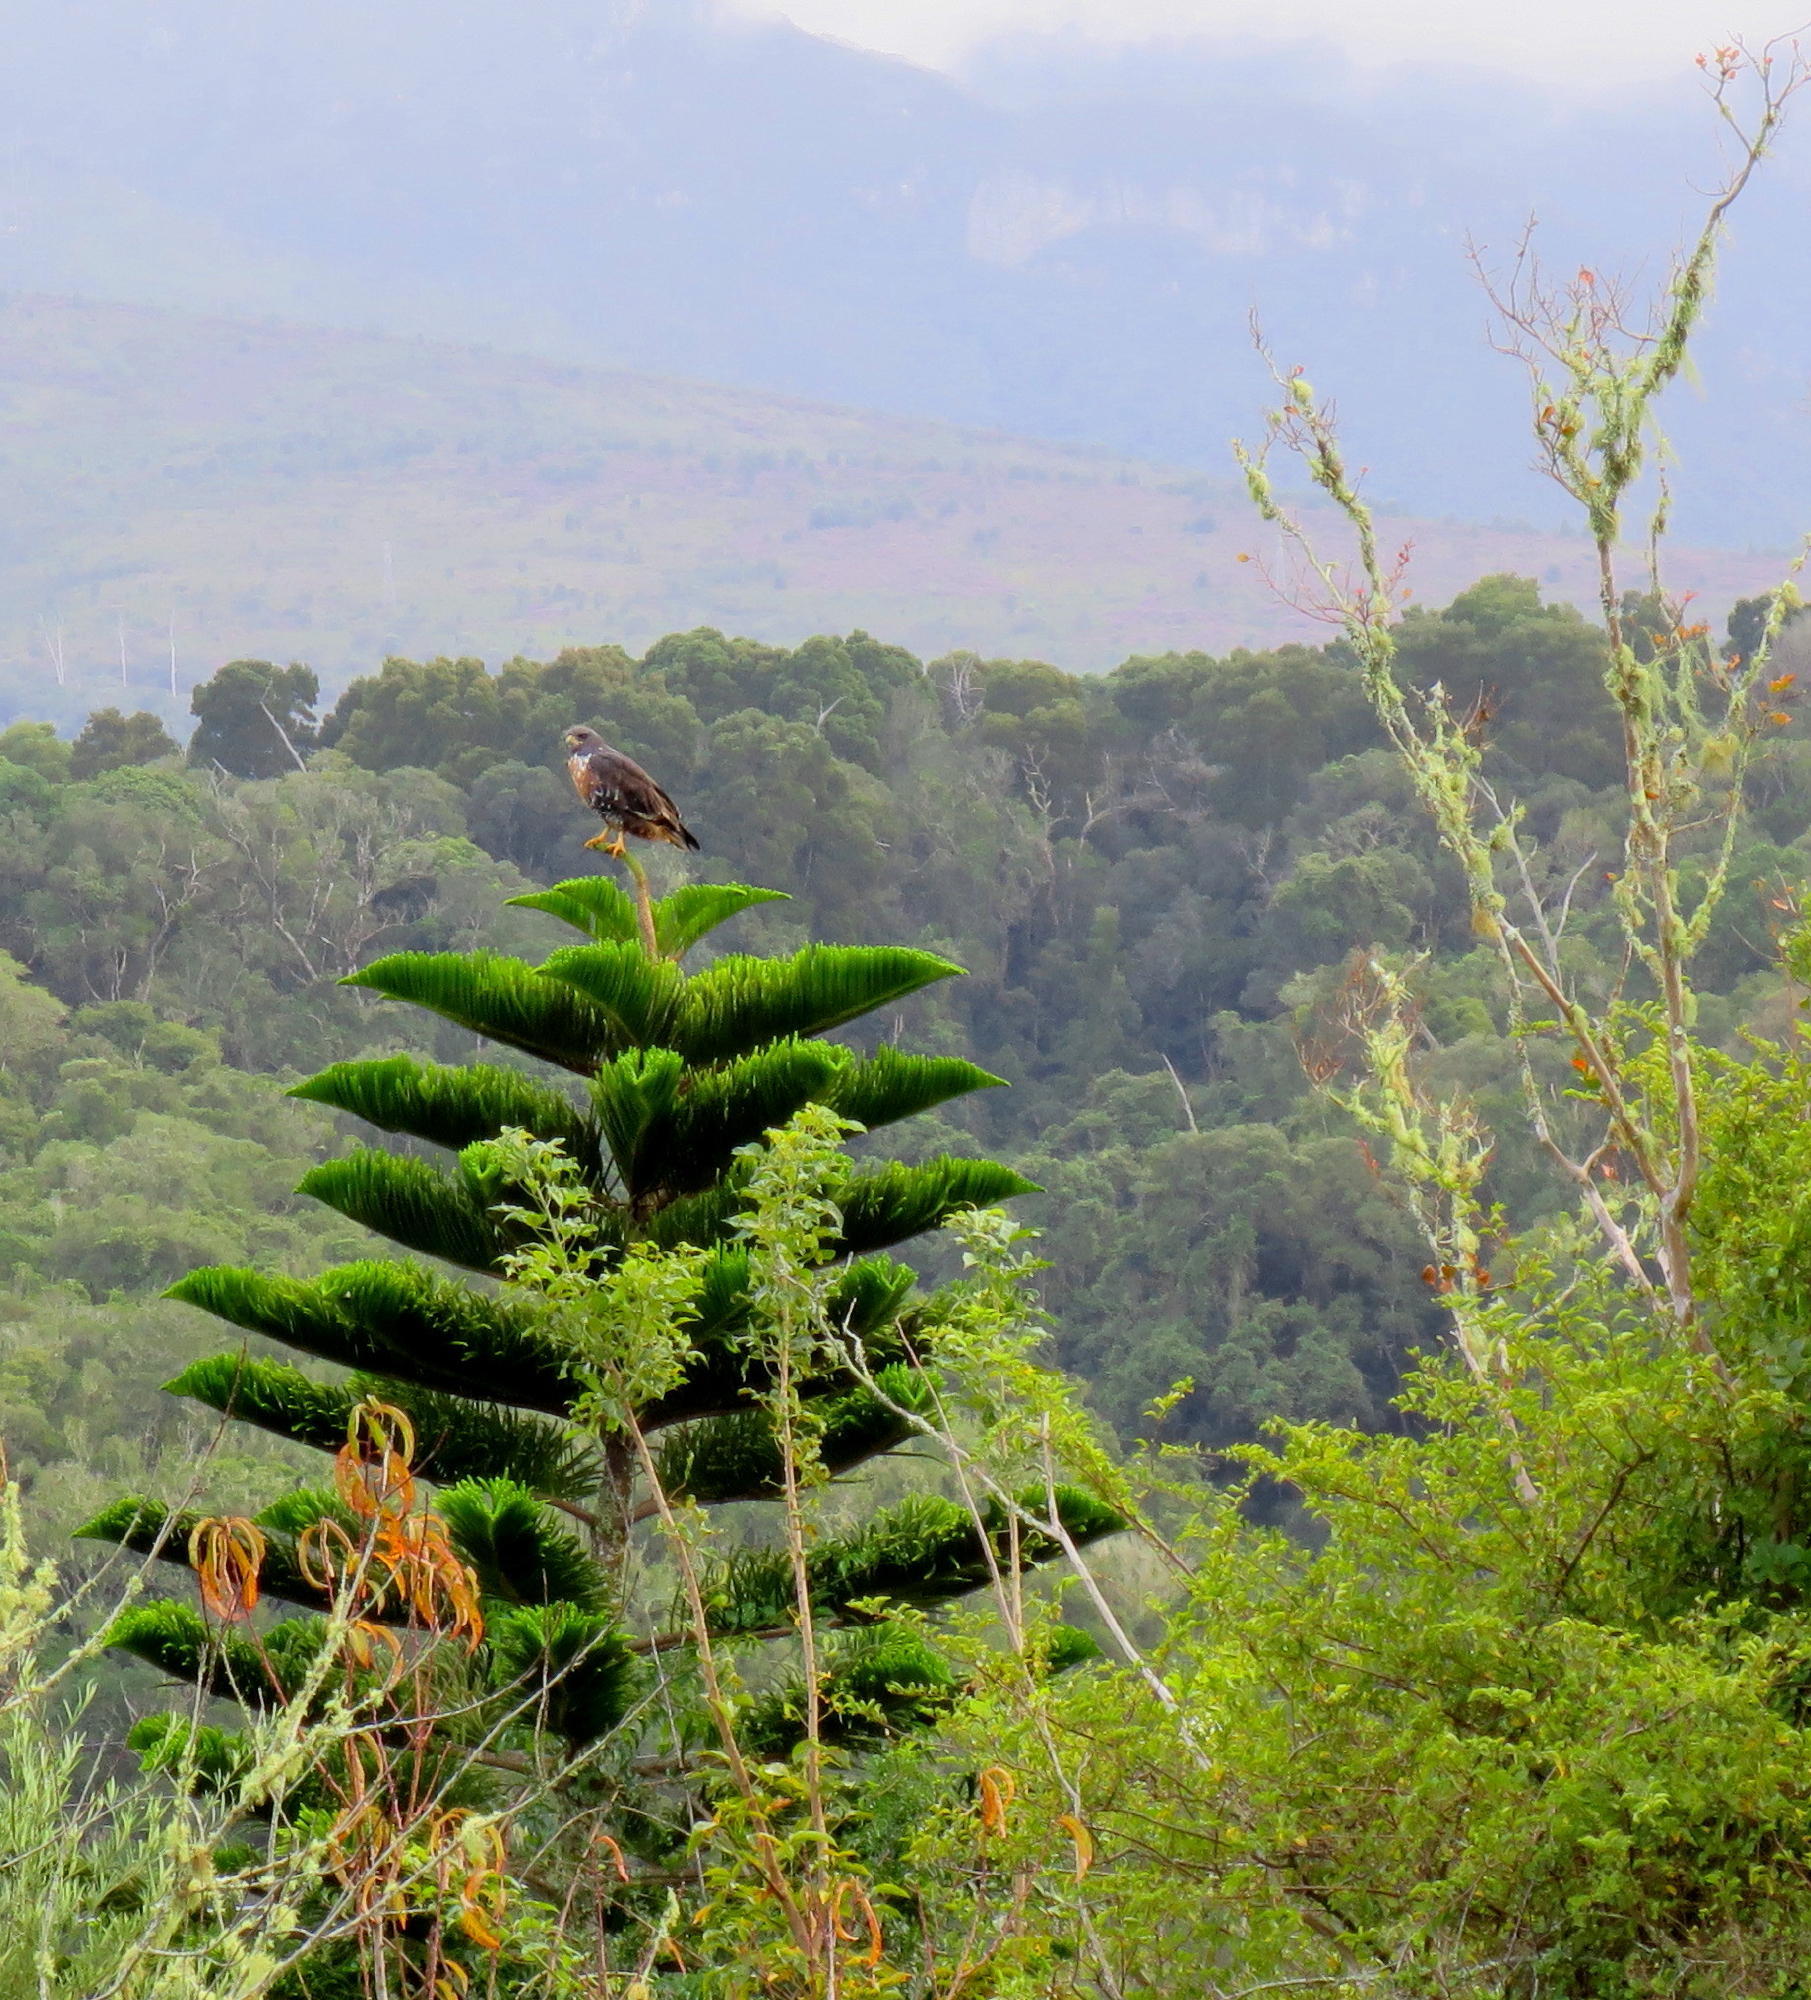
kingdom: Animalia
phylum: Chordata
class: Aves
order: Accipitriformes
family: Accipitridae
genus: Buteo
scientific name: Buteo rufofuscus
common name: Jackal buzzard
